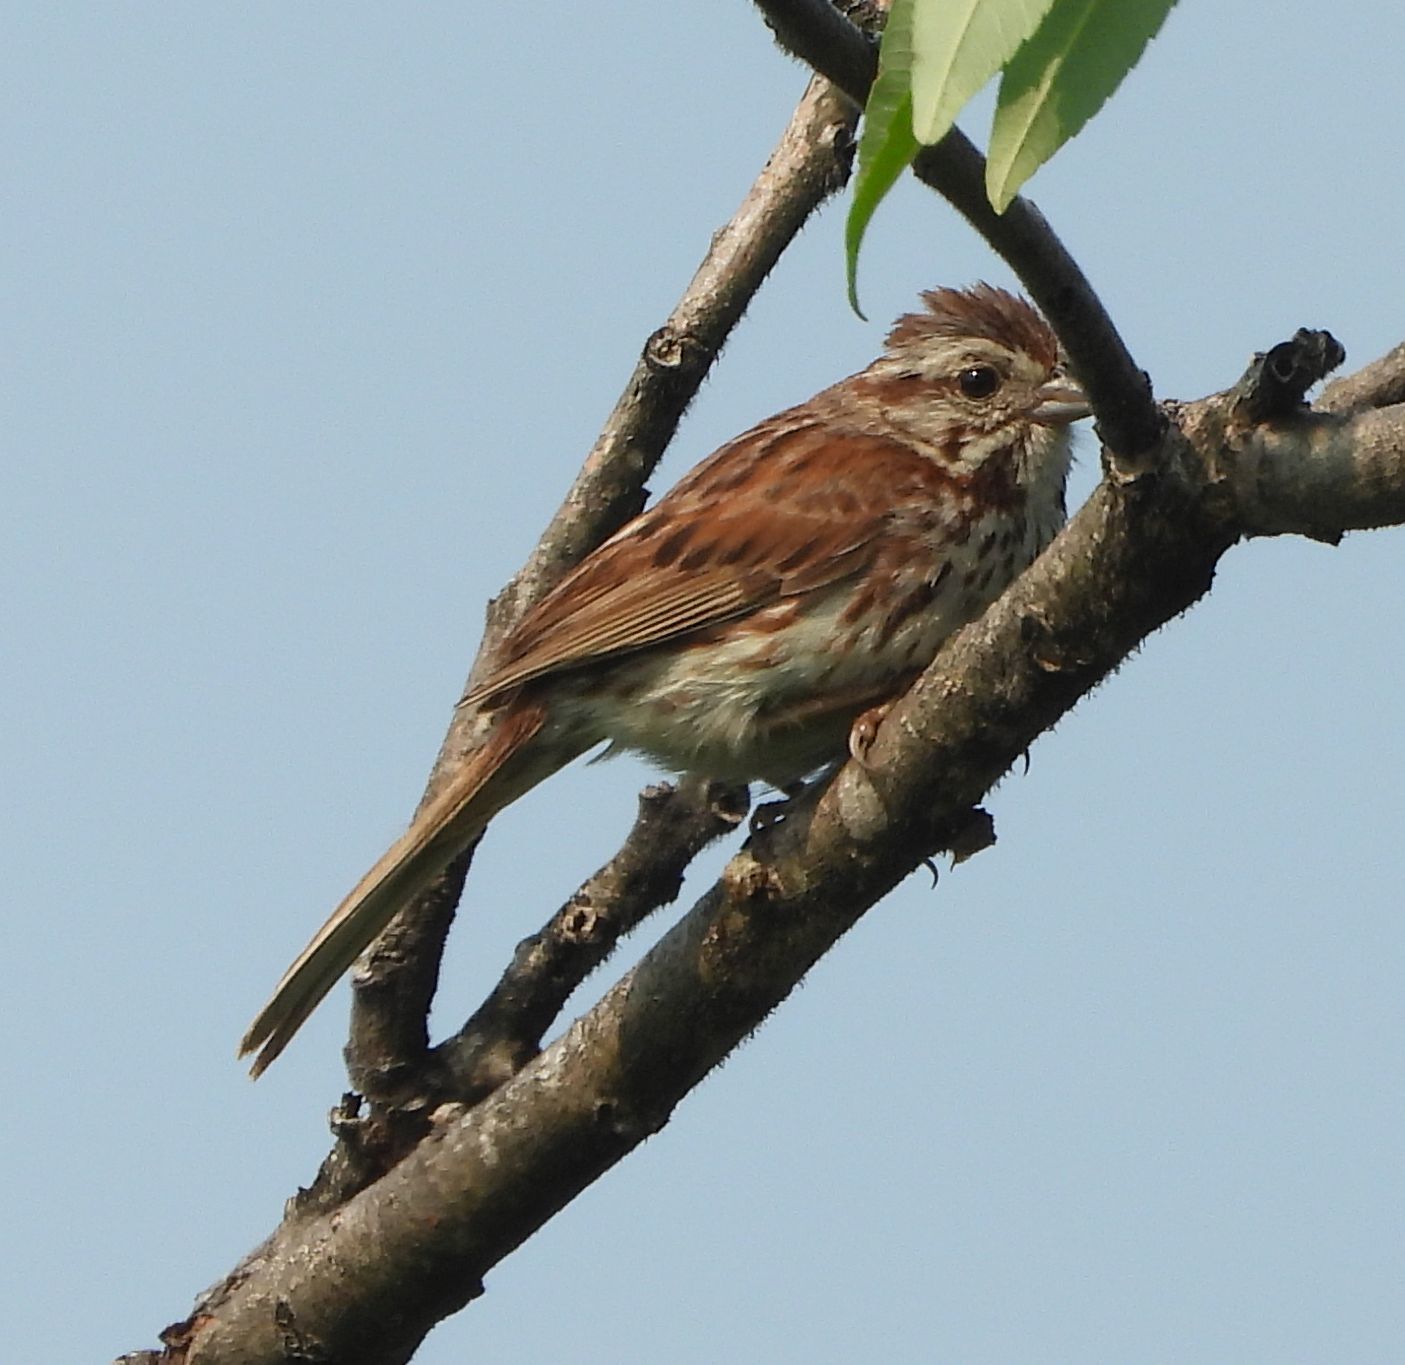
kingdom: Animalia
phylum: Chordata
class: Aves
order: Passeriformes
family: Passerellidae
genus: Melospiza
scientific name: Melospiza melodia
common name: Song sparrow
